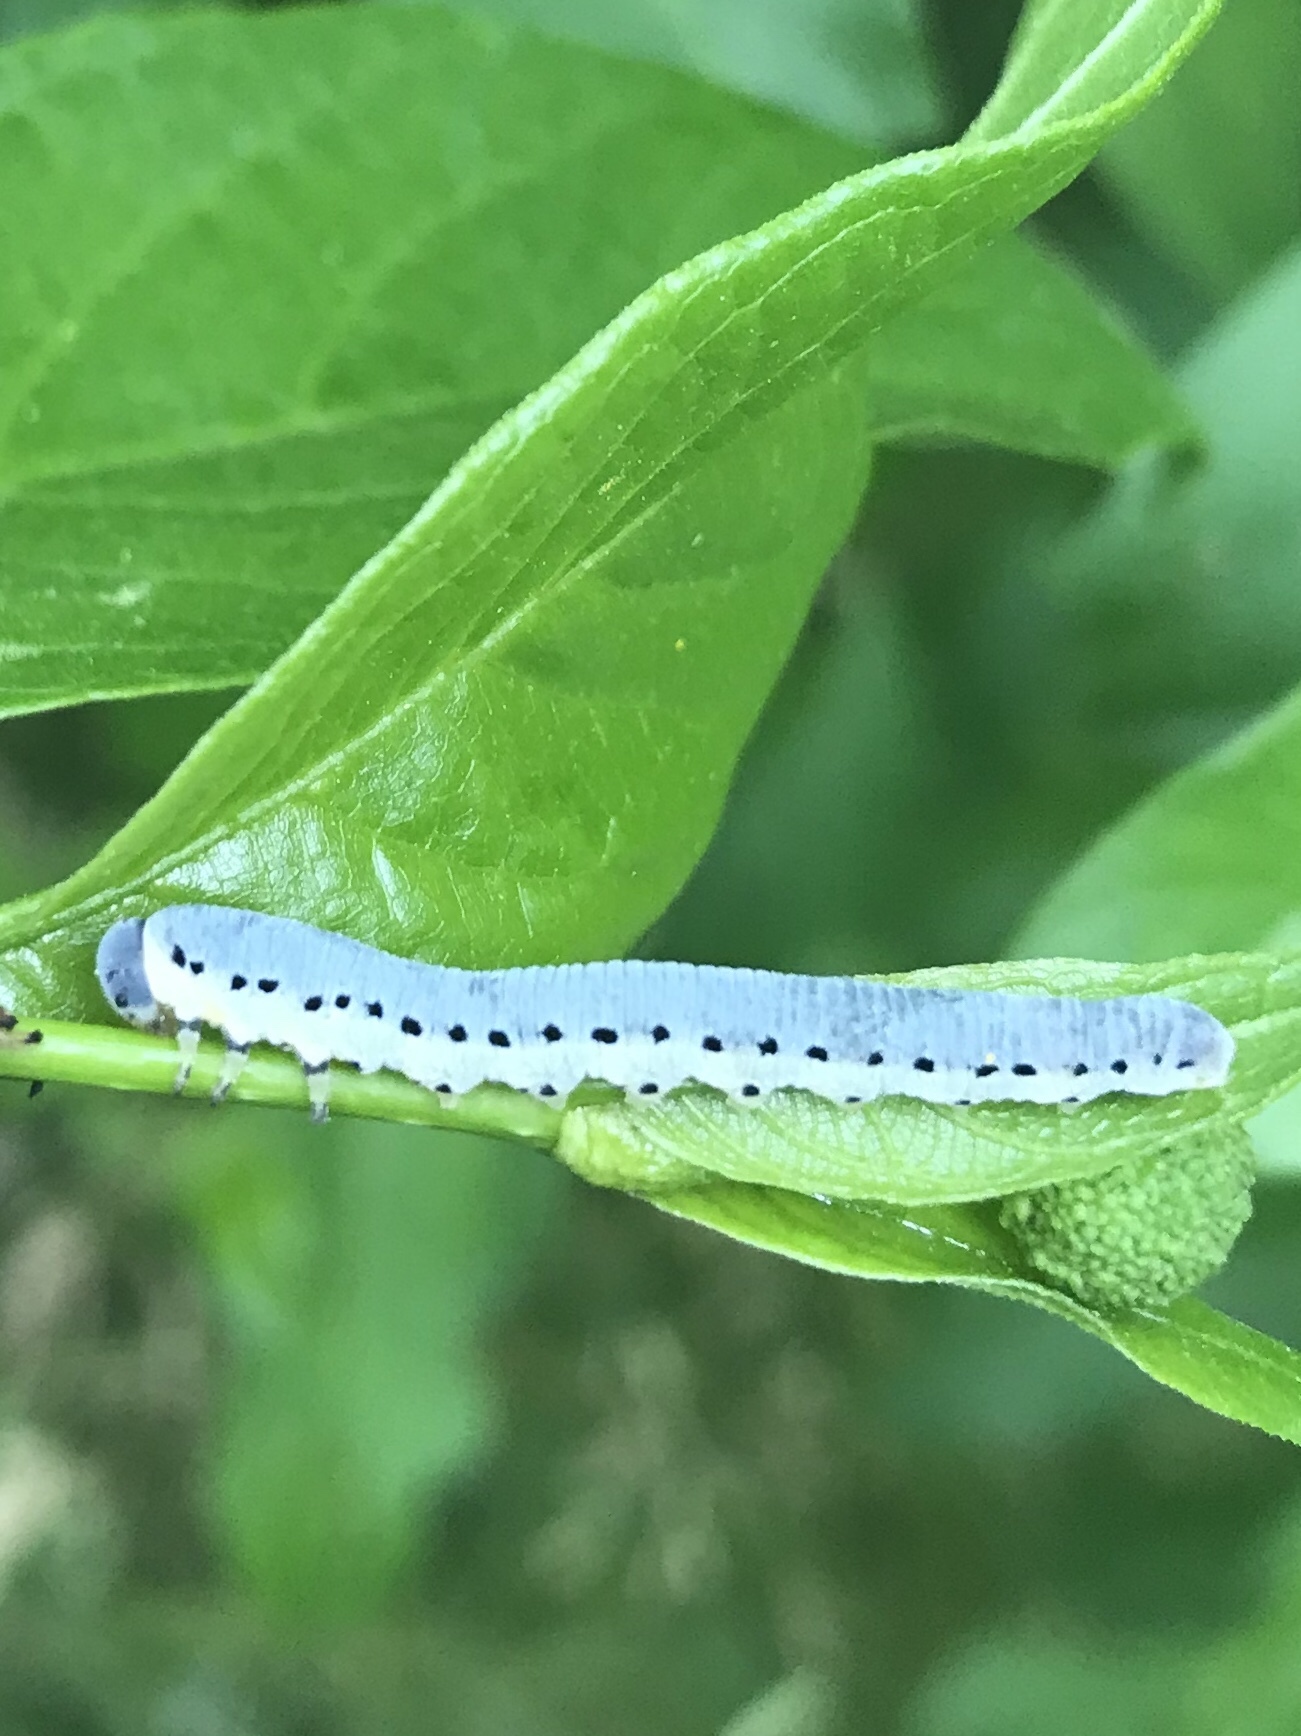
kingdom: Animalia
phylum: Arthropoda
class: Insecta
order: Hymenoptera
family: Tenthredinidae
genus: Pseudosiobla
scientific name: Pseudosiobla
